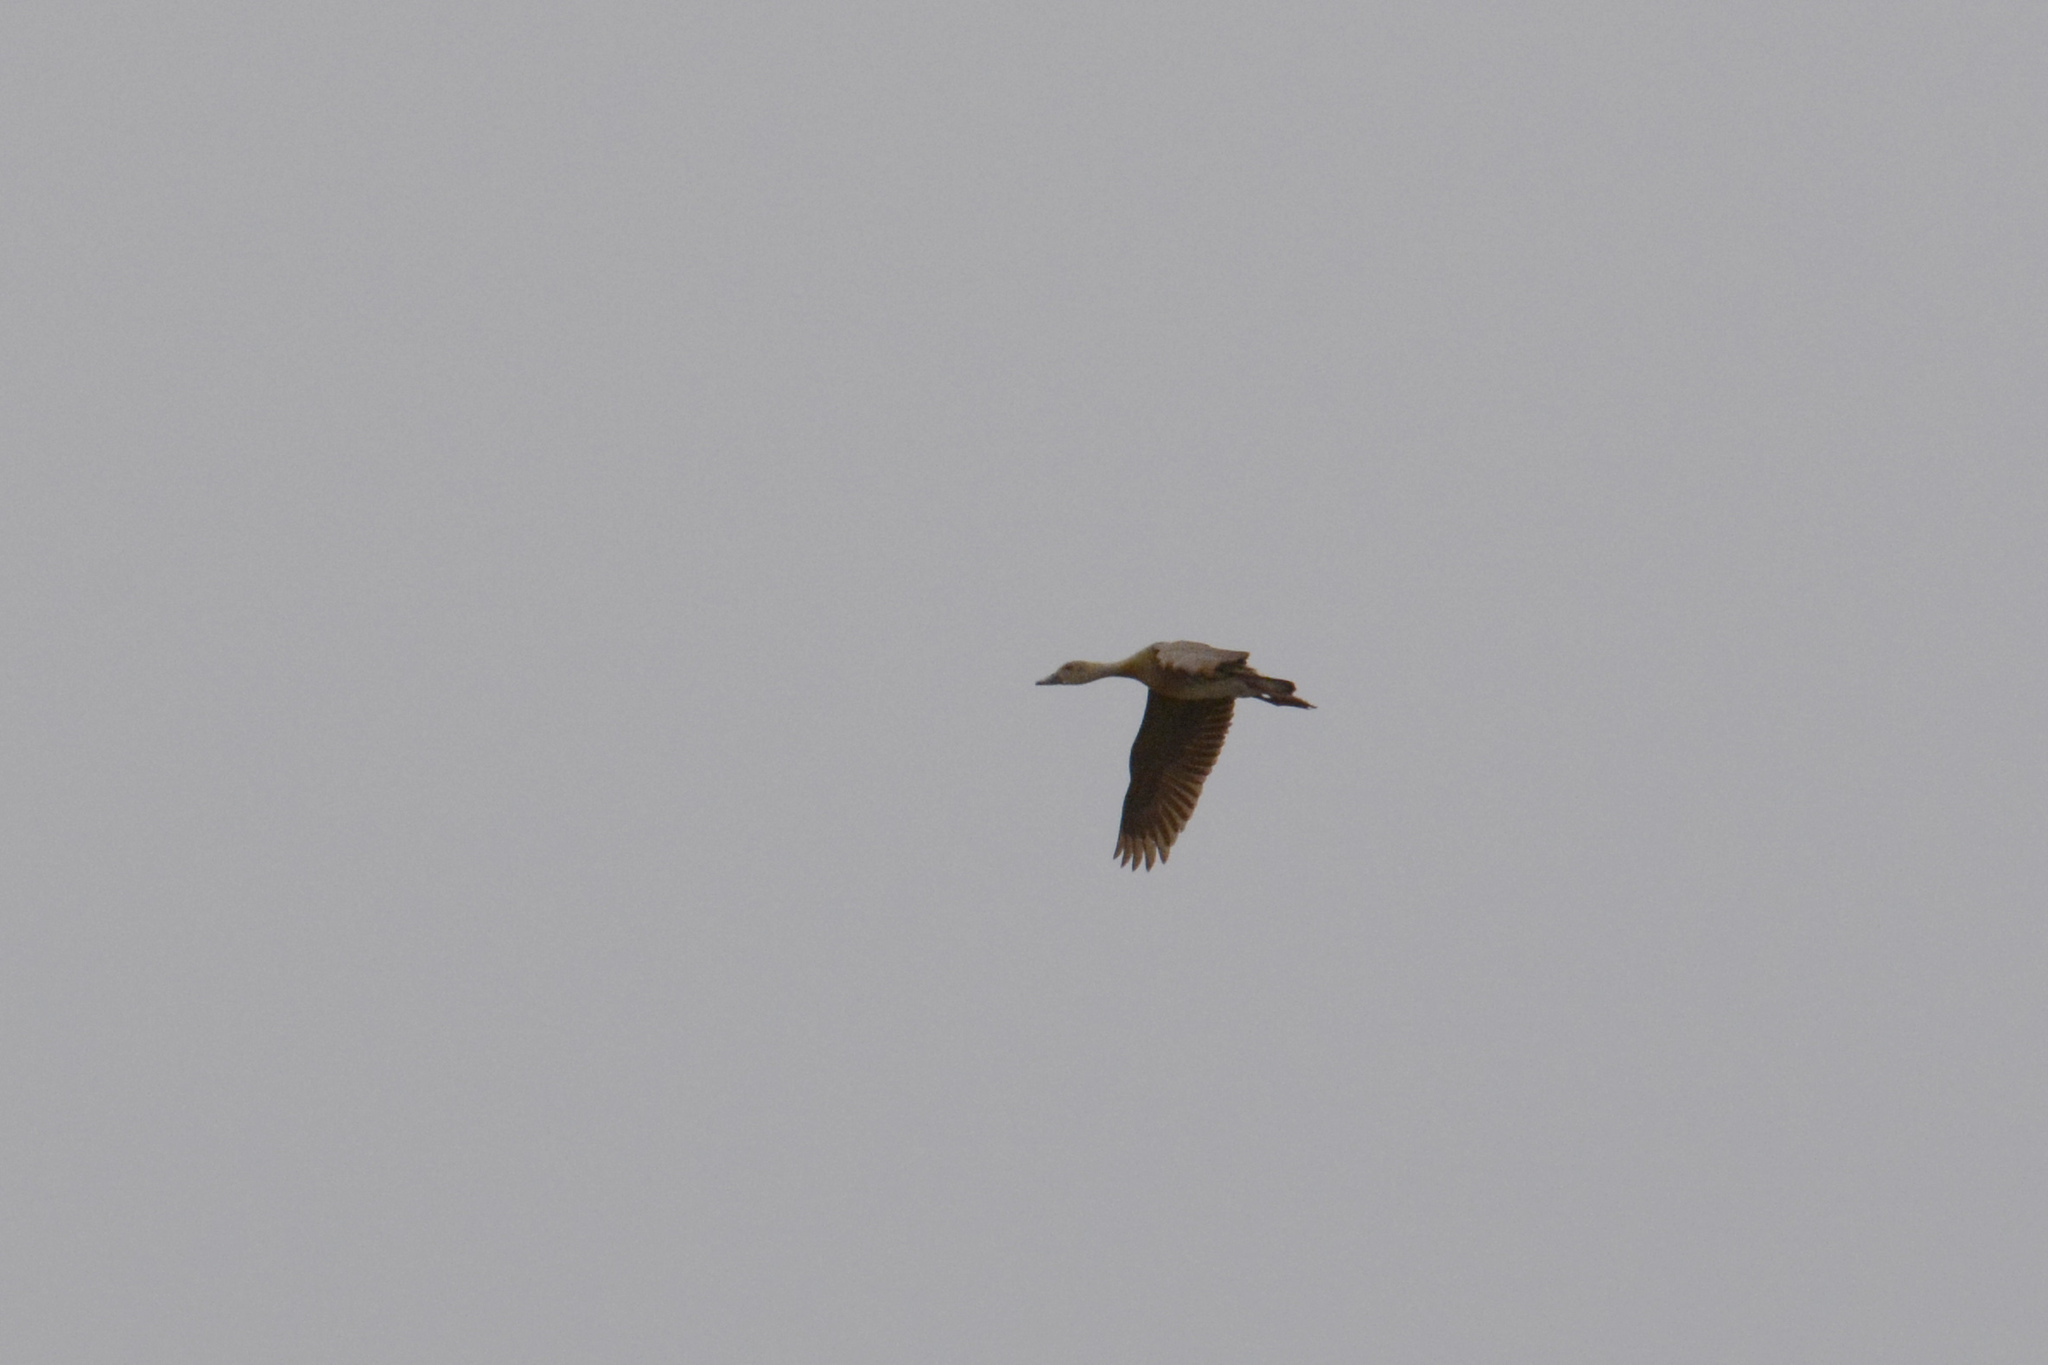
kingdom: Animalia
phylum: Chordata
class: Aves
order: Anseriformes
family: Anatidae
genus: Dendrocygna
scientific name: Dendrocygna eytoni
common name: Plumed whistling-duck
